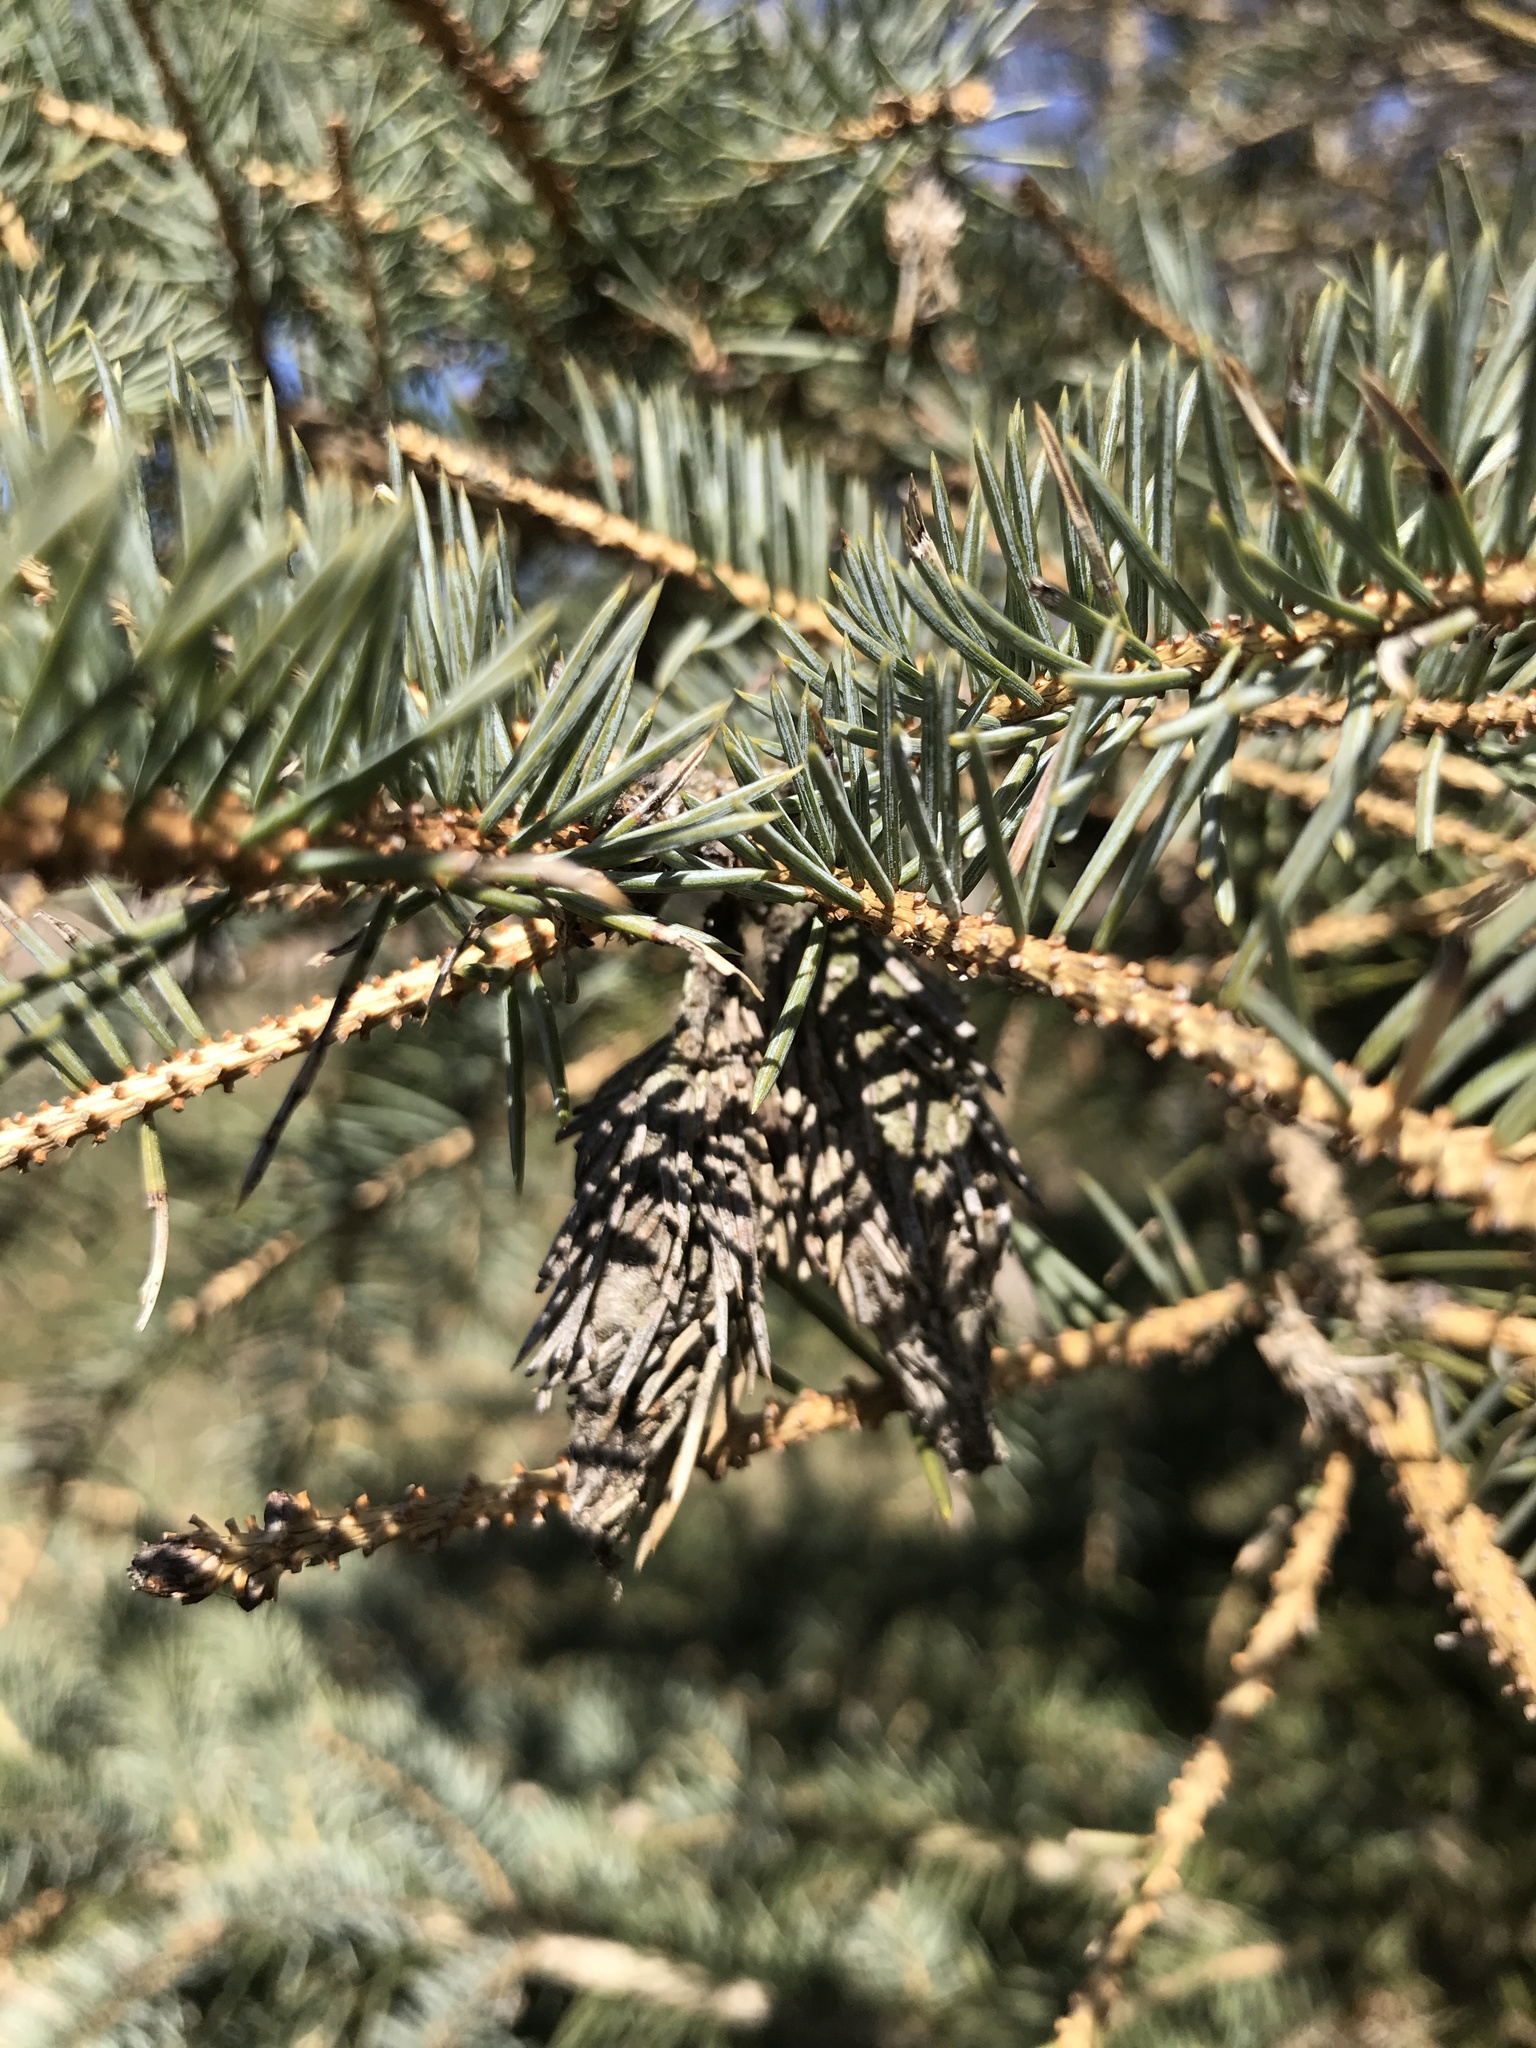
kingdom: Animalia
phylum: Arthropoda
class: Insecta
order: Lepidoptera
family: Psychidae
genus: Thyridopteryx
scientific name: Thyridopteryx ephemeraeformis
